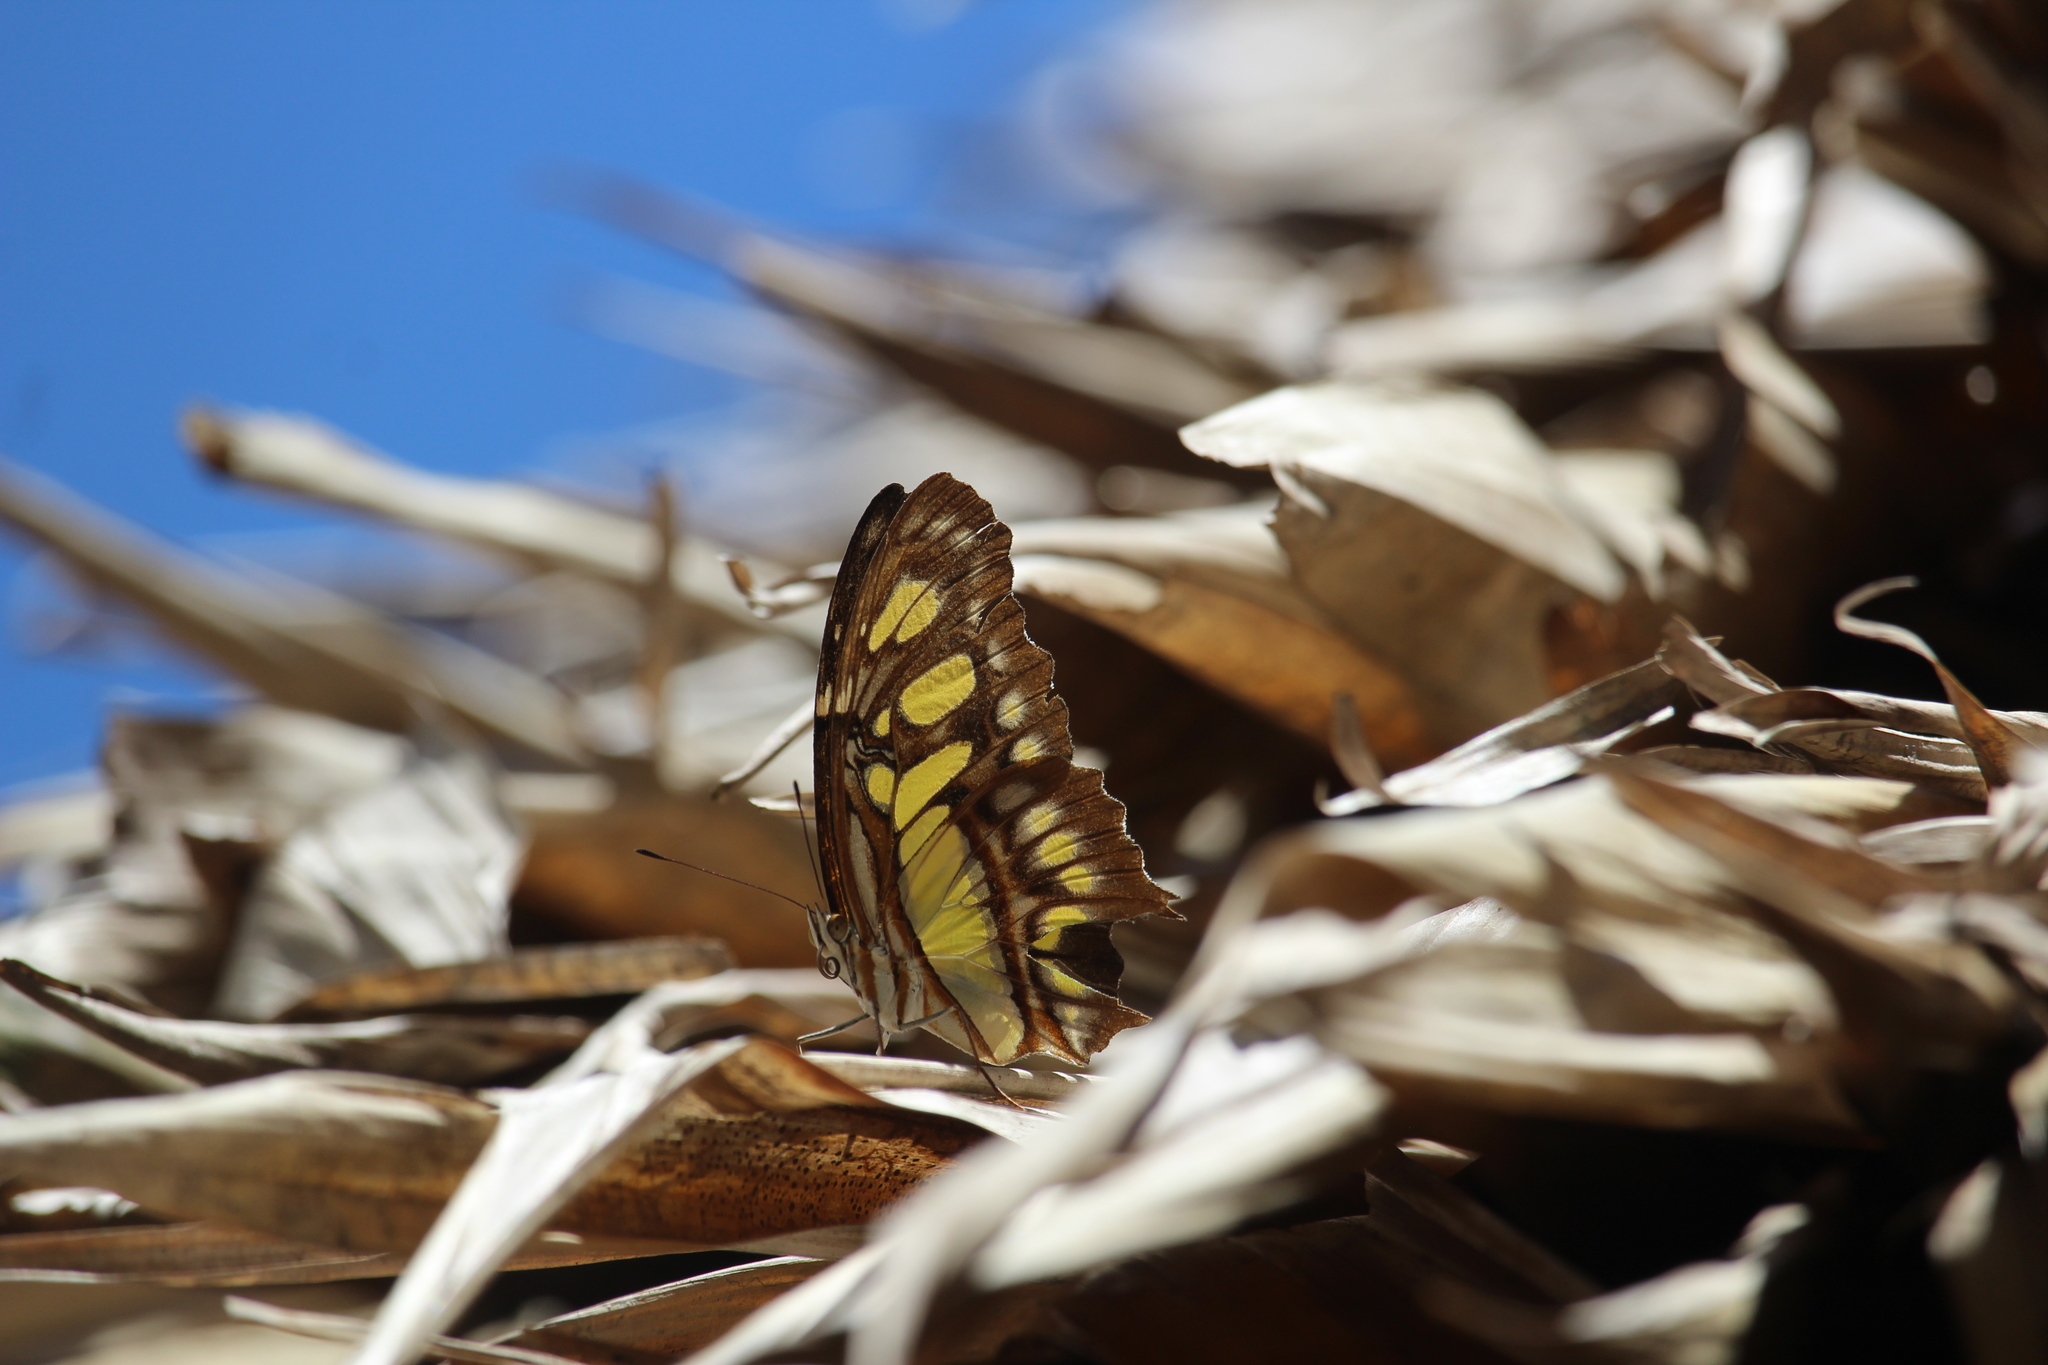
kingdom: Animalia
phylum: Arthropoda
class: Insecta
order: Lepidoptera
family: Nymphalidae
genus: Siproeta
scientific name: Siproeta stelenes
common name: Malachite
